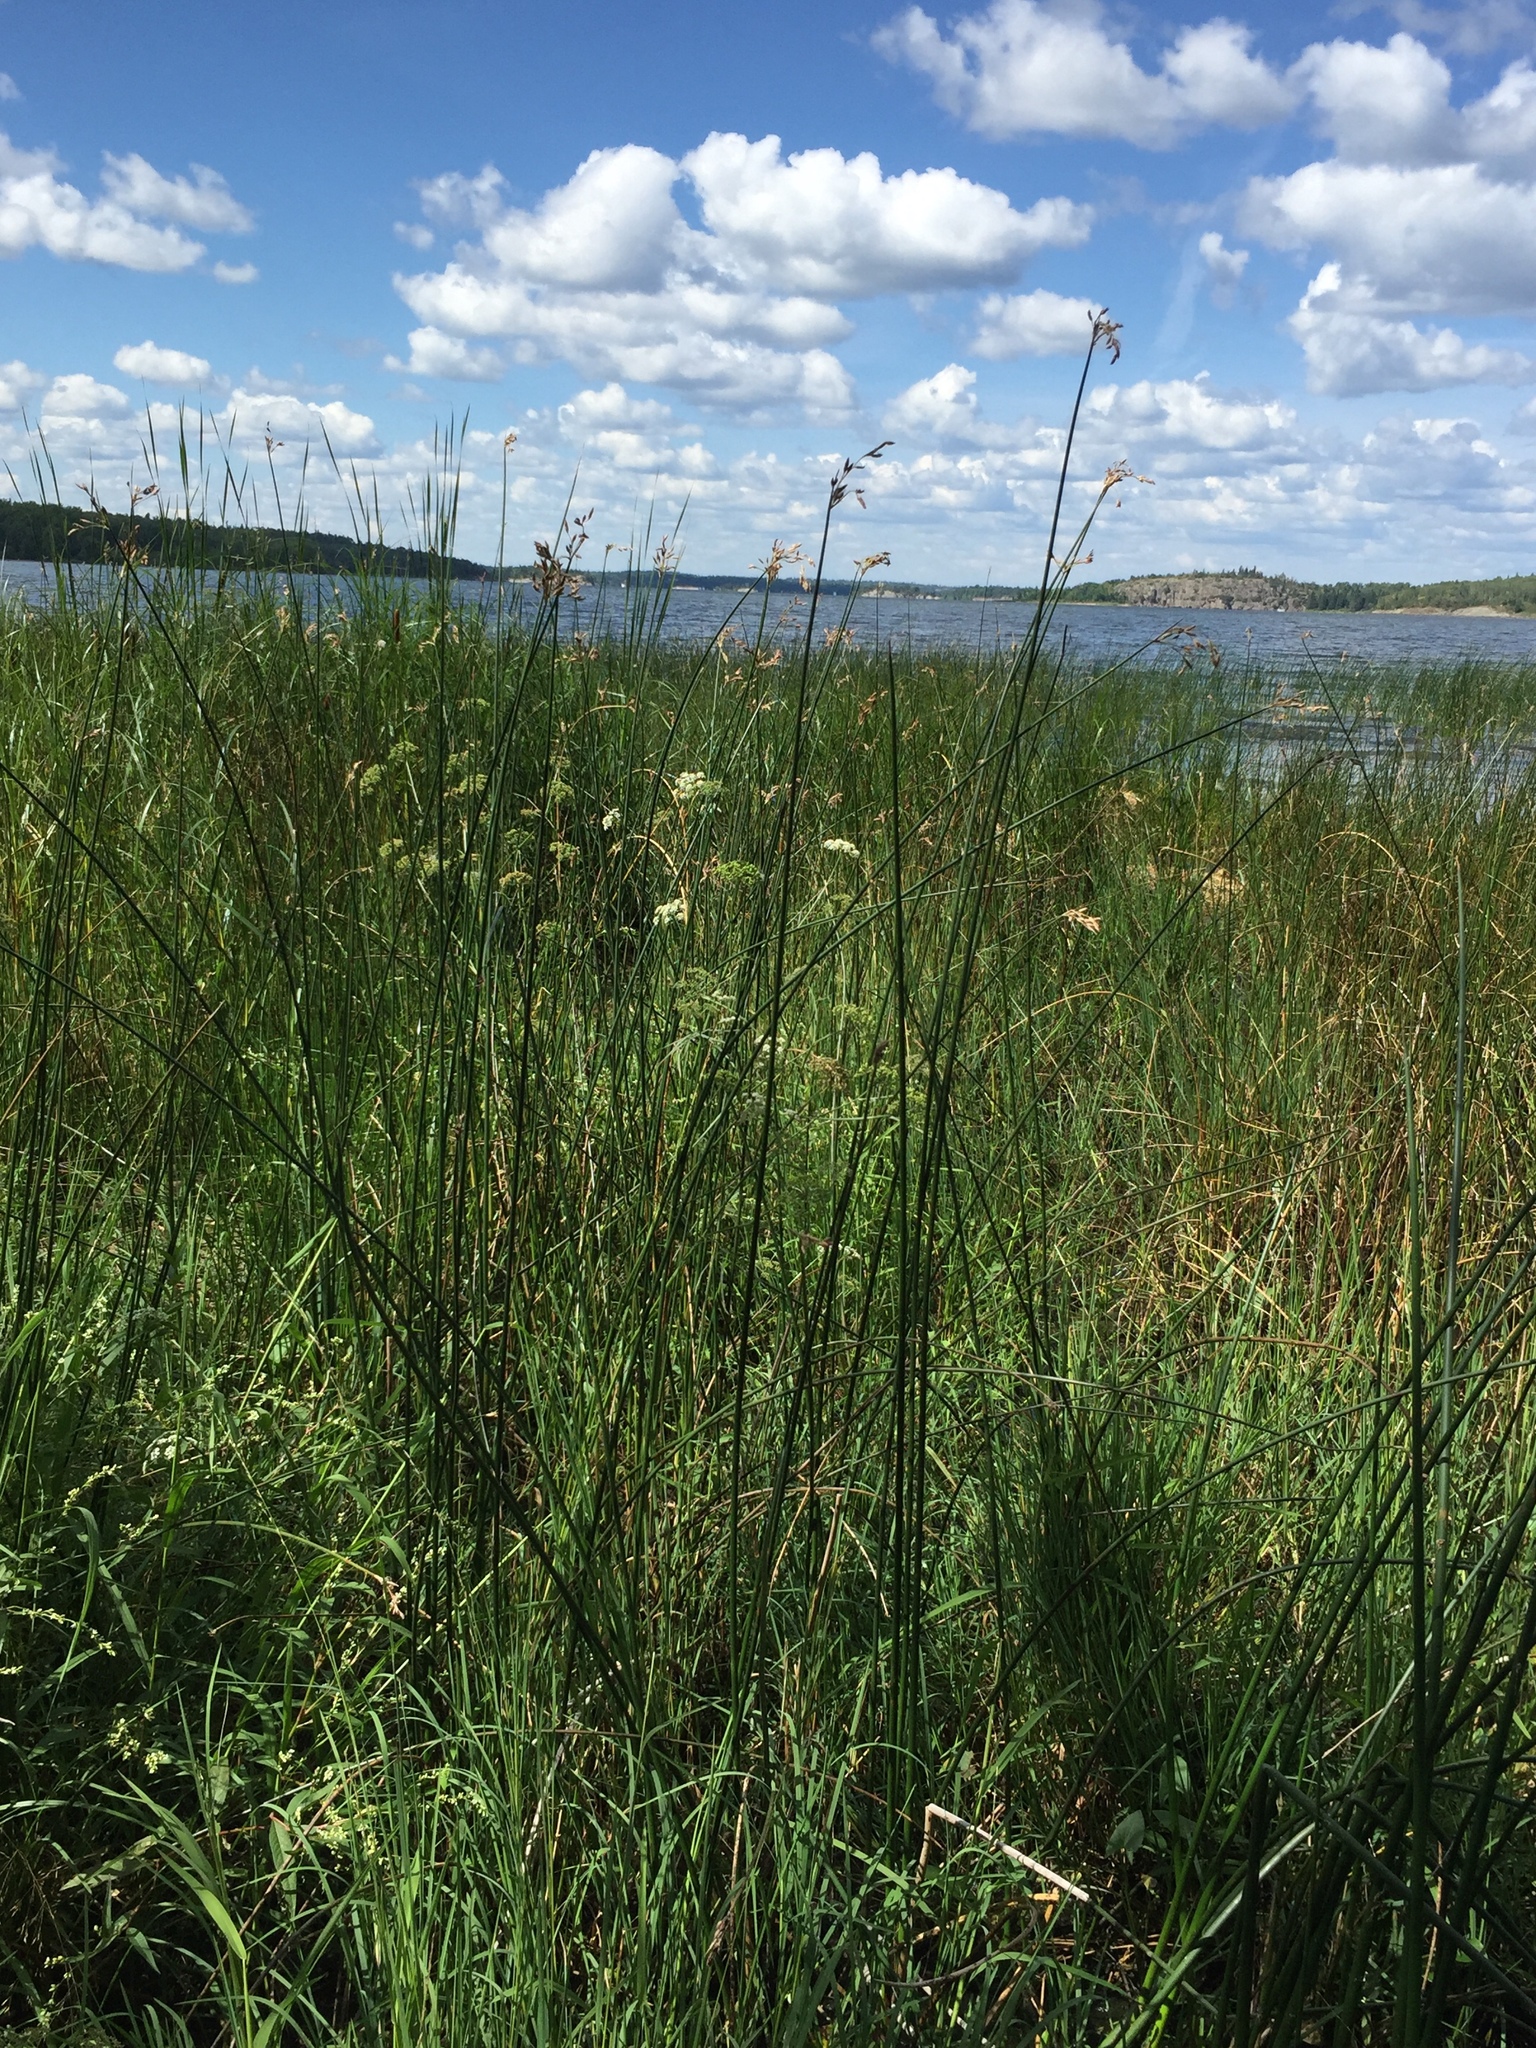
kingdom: Plantae
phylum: Tracheophyta
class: Liliopsida
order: Poales
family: Cyperaceae
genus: Schoenoplectus
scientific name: Schoenoplectus tabernaemontani
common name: Grey club-rush
